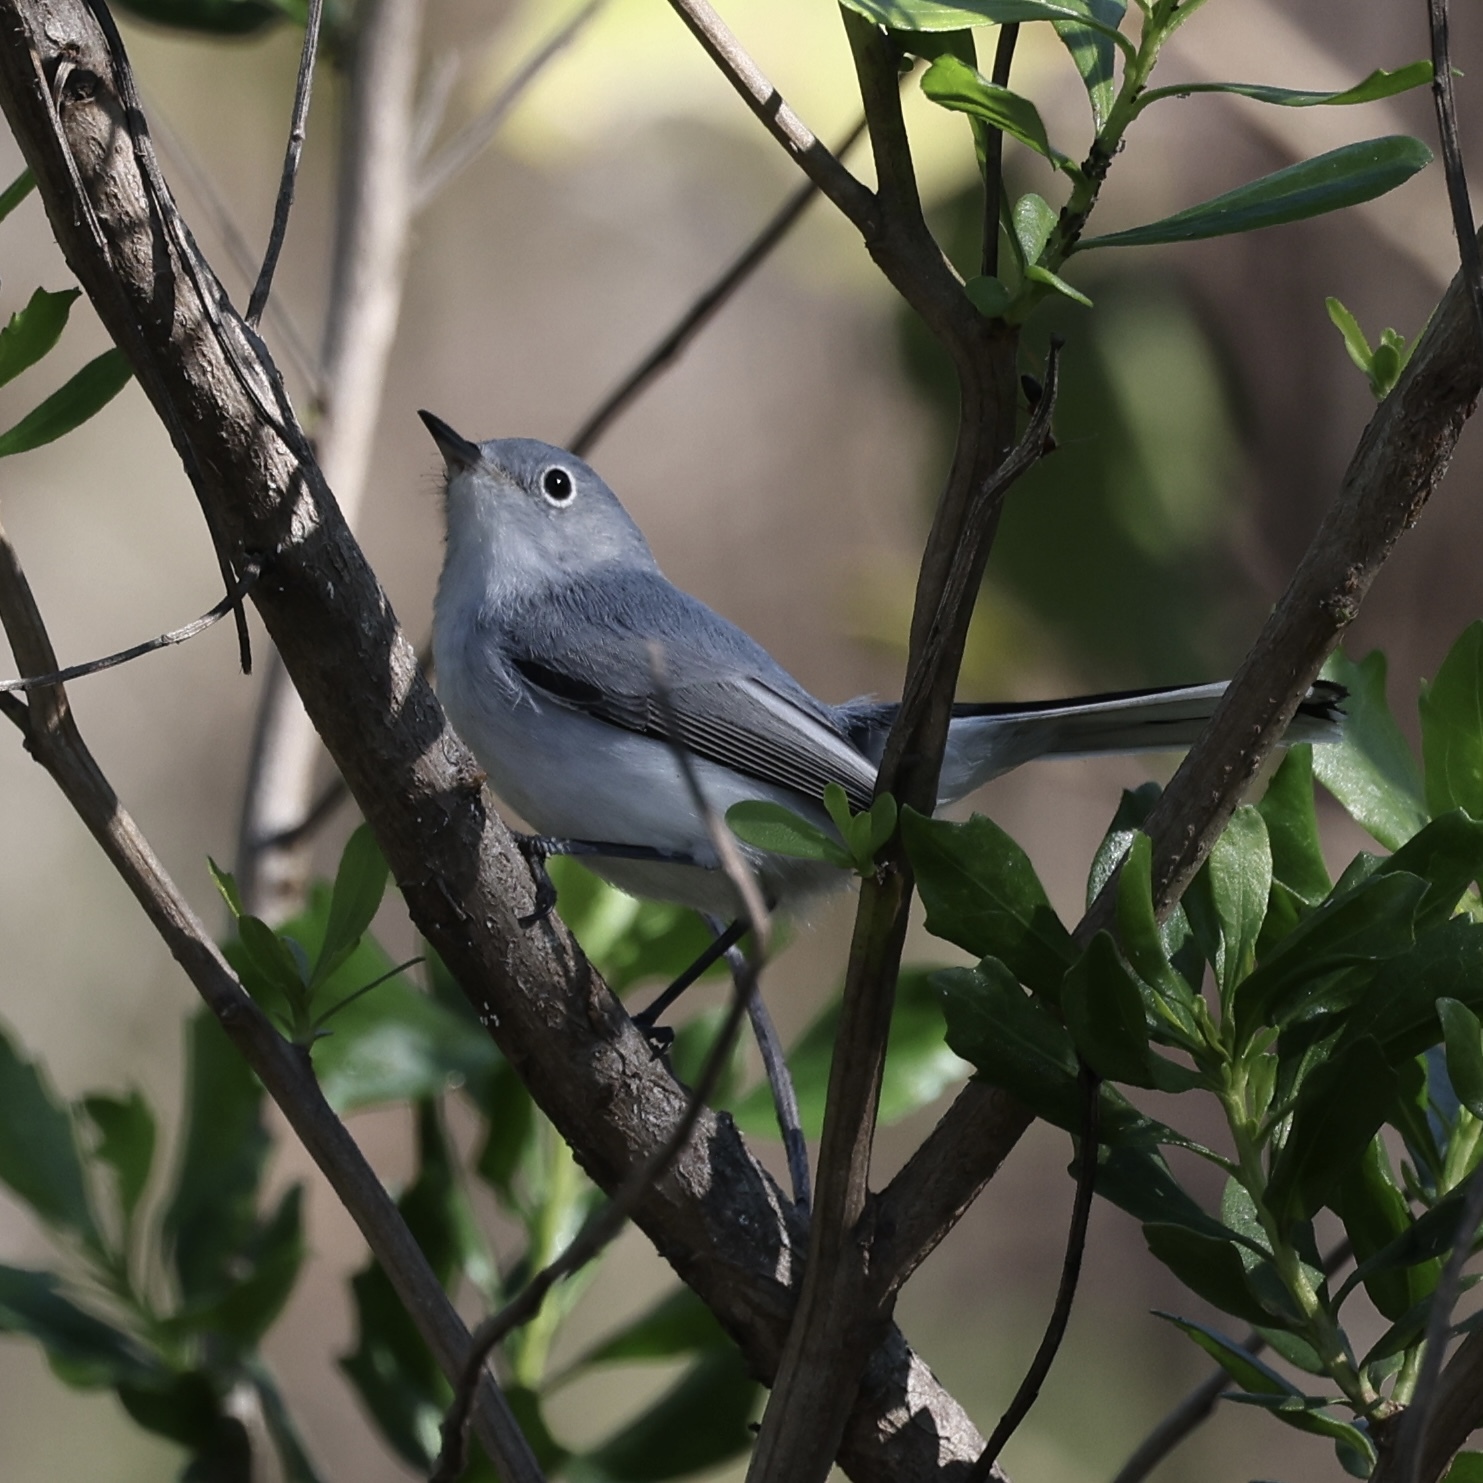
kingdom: Animalia
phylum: Chordata
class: Aves
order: Passeriformes
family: Polioptilidae
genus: Polioptila
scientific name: Polioptila caerulea
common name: Blue-gray gnatcatcher
